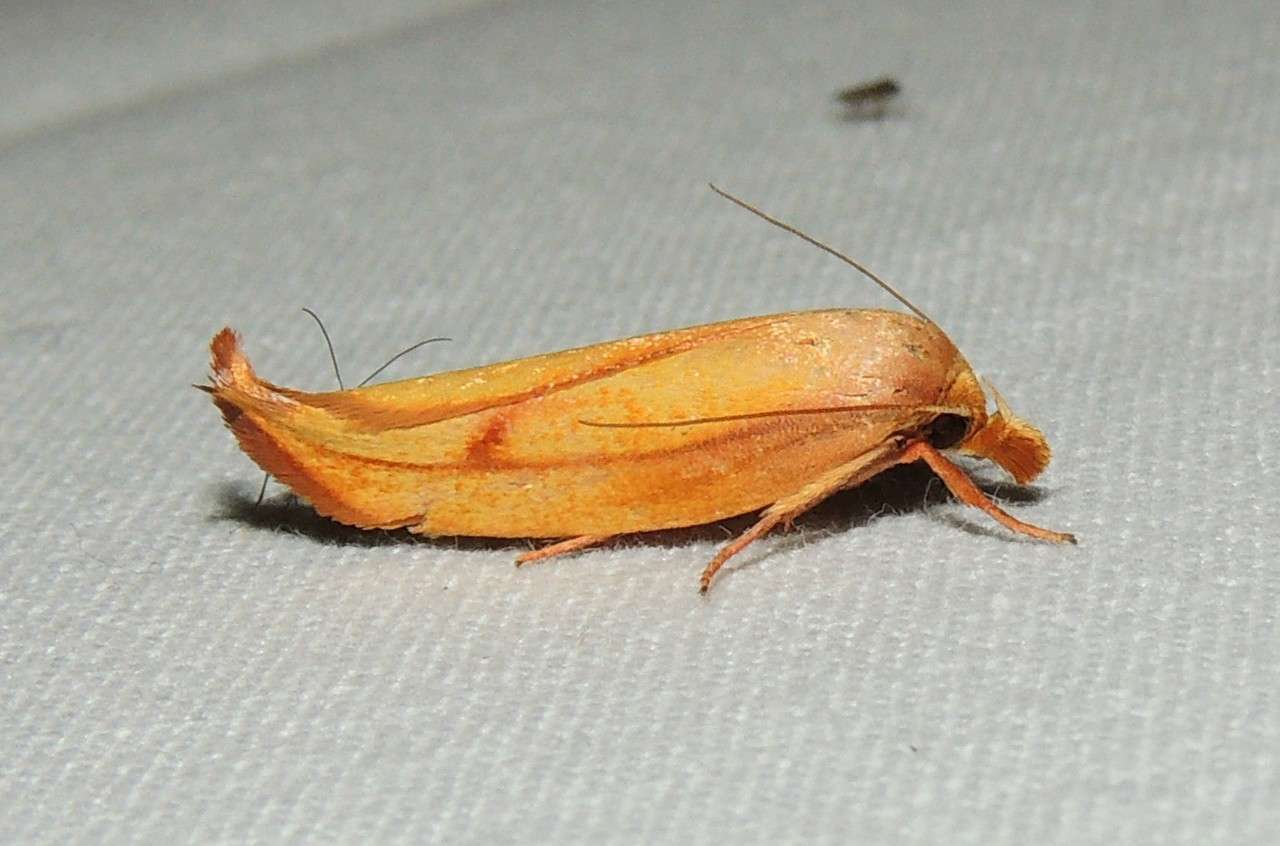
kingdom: Animalia
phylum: Arthropoda
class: Insecta
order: Lepidoptera
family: Oecophoridae
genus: Wingia
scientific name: Wingia aurata
